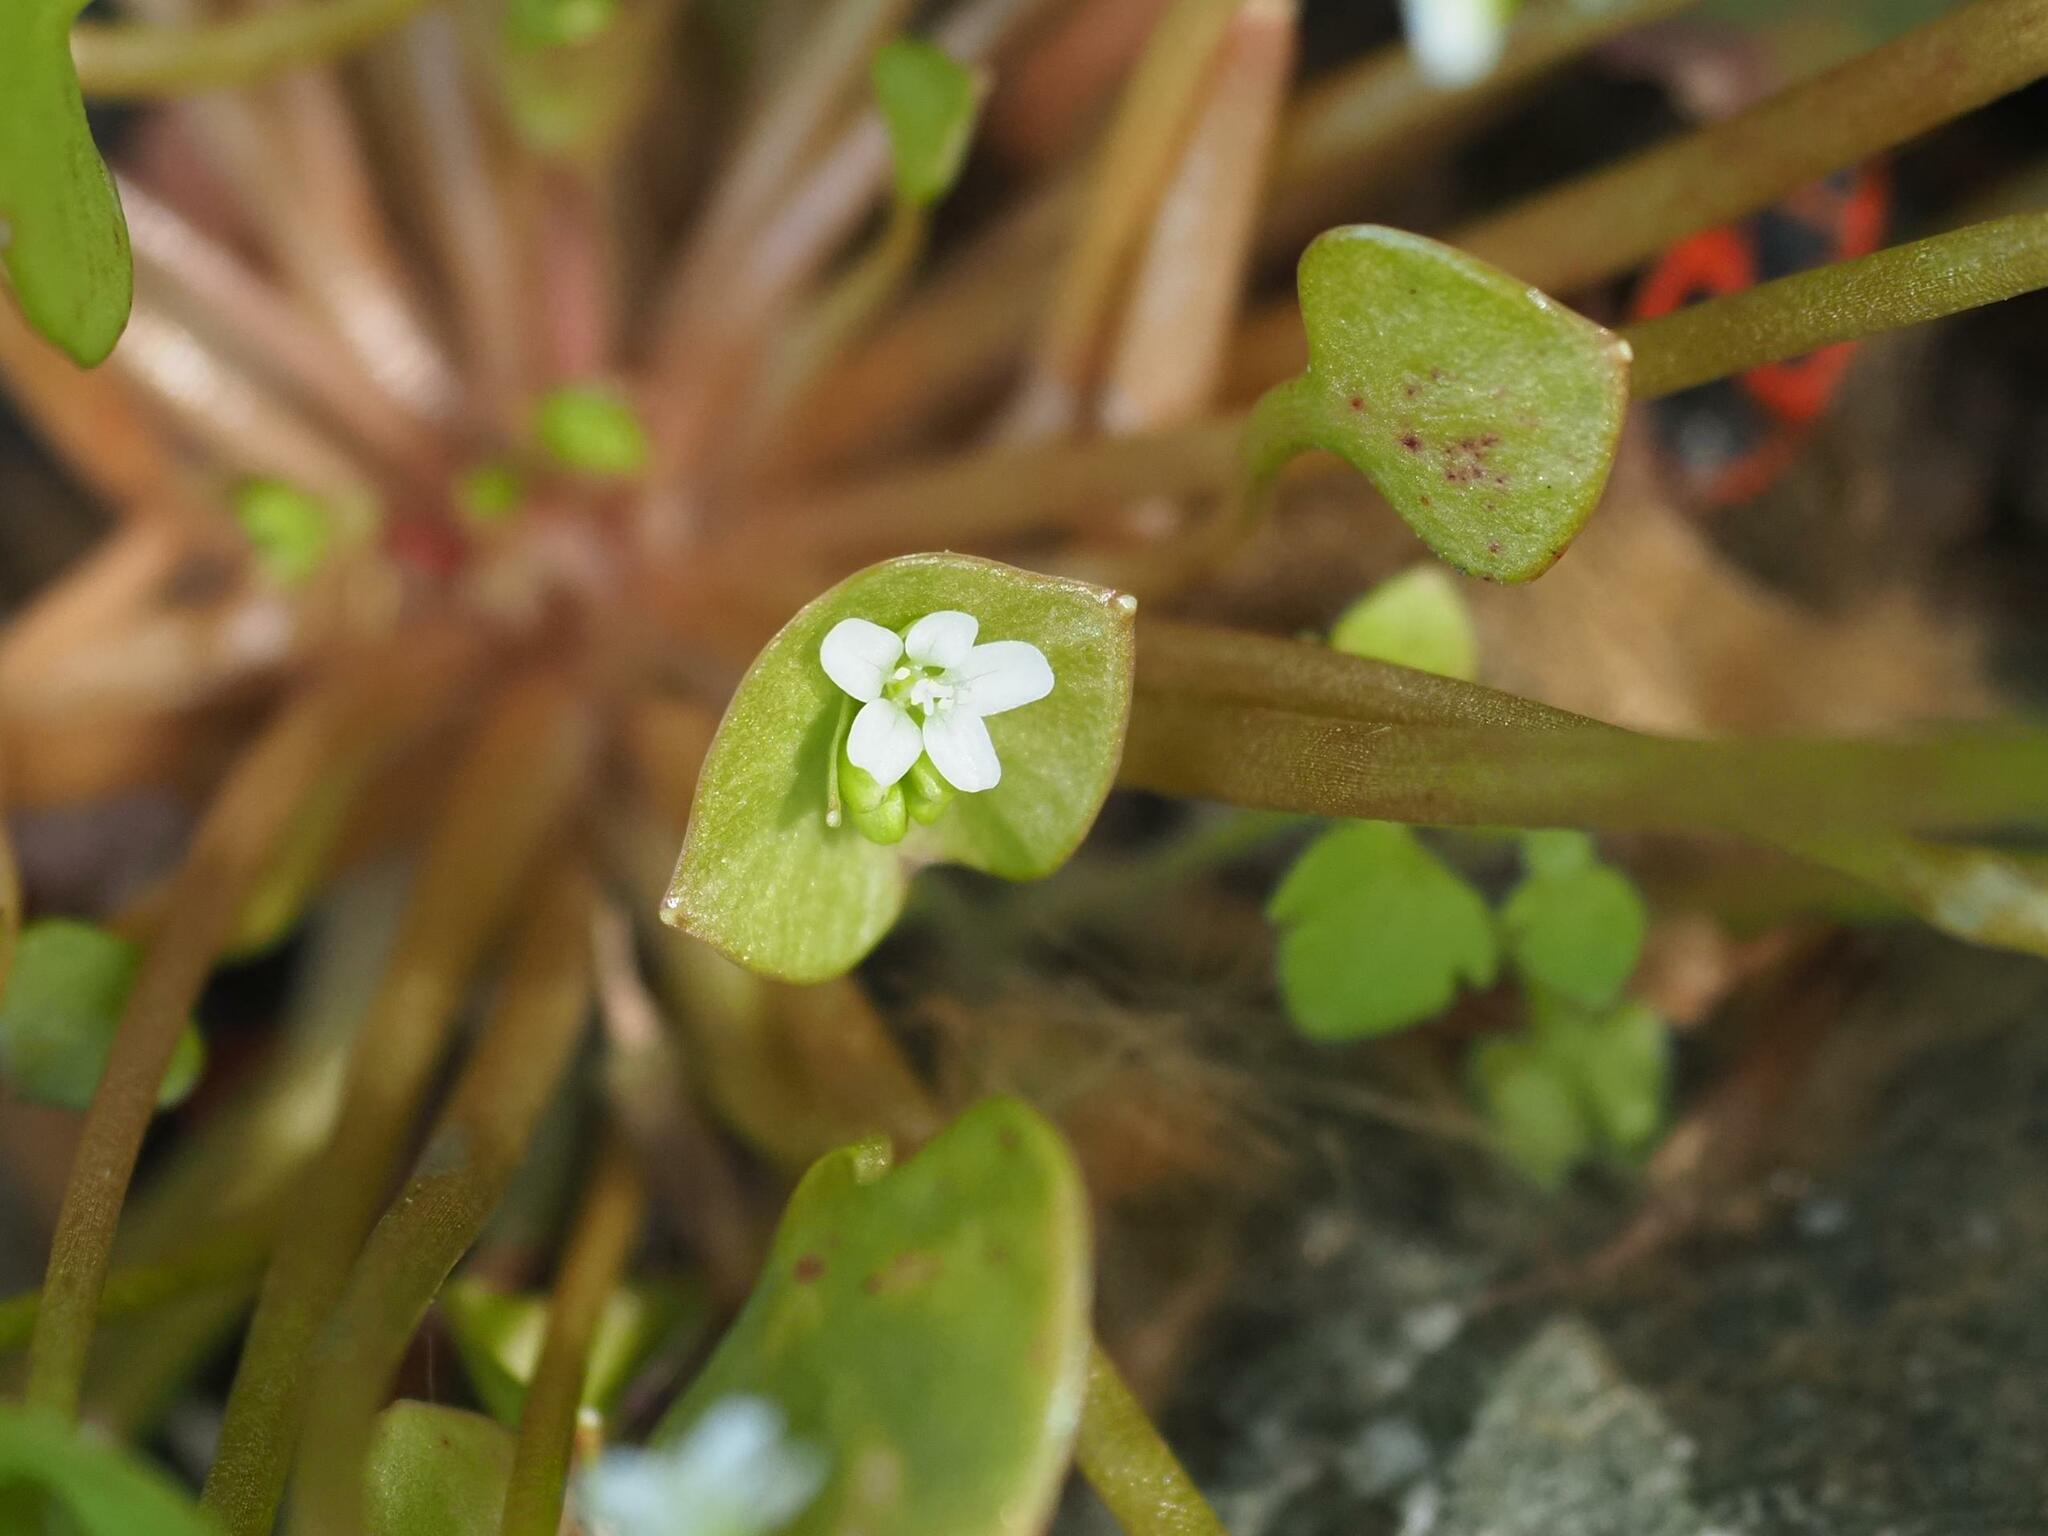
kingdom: Plantae
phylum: Tracheophyta
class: Magnoliopsida
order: Caryophyllales
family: Montiaceae
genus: Claytonia
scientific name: Claytonia perfoliata
